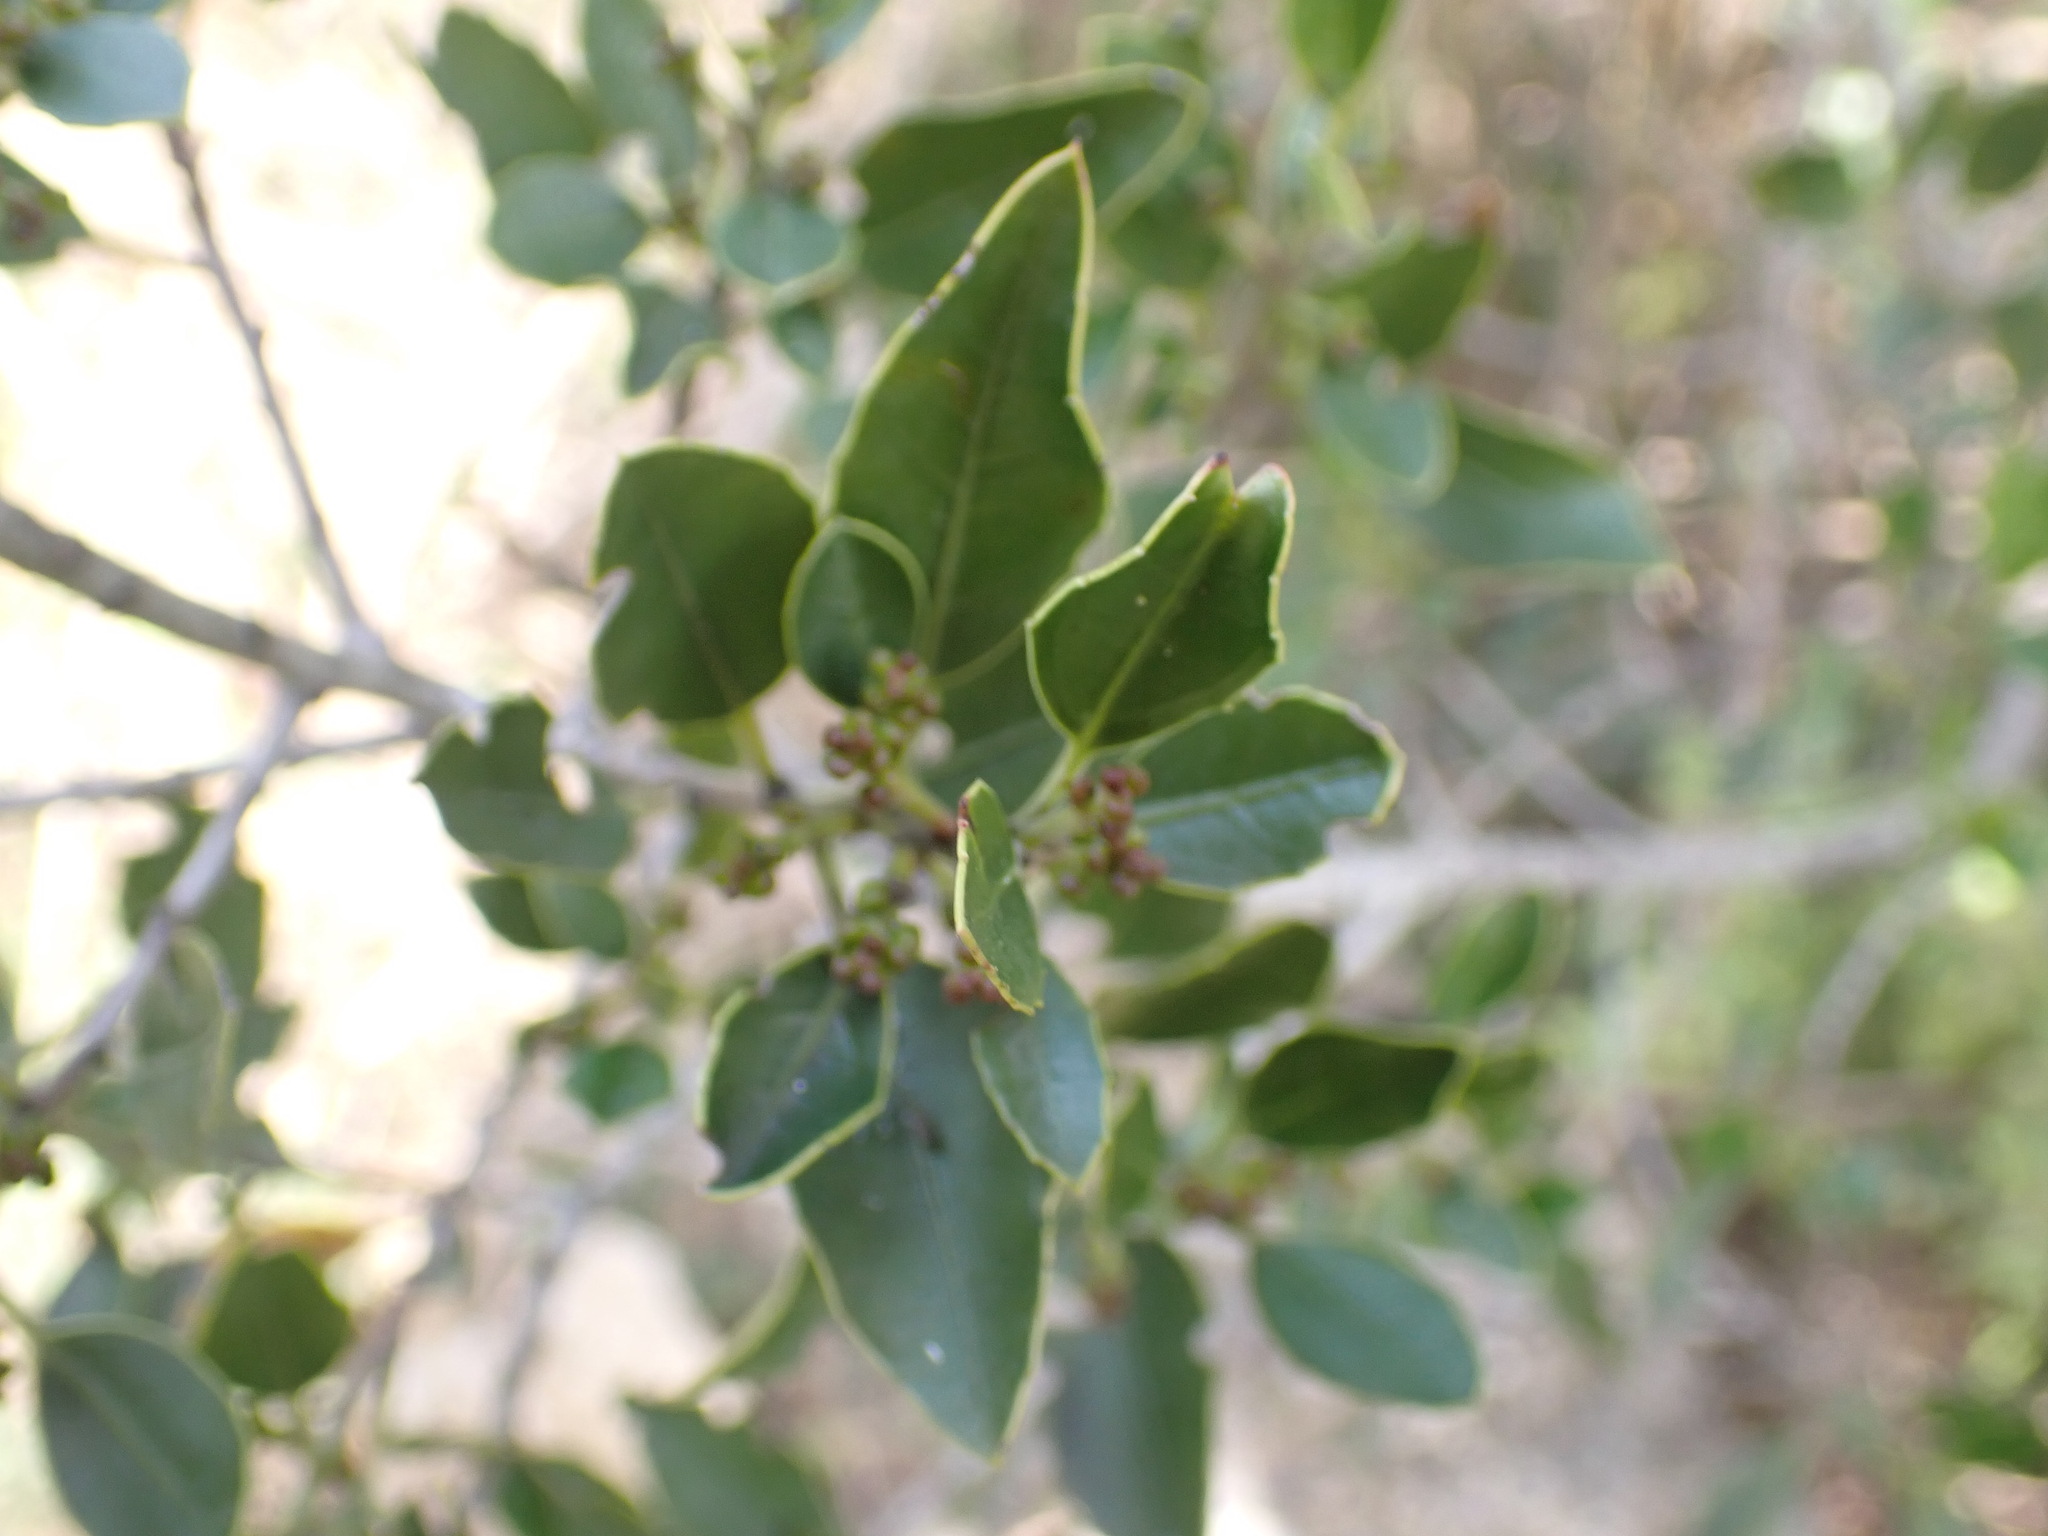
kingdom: Plantae
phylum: Tracheophyta
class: Magnoliopsida
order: Rosales
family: Rhamnaceae
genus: Rhamnus
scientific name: Rhamnus alaternus
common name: Mediterranean buckthorn
